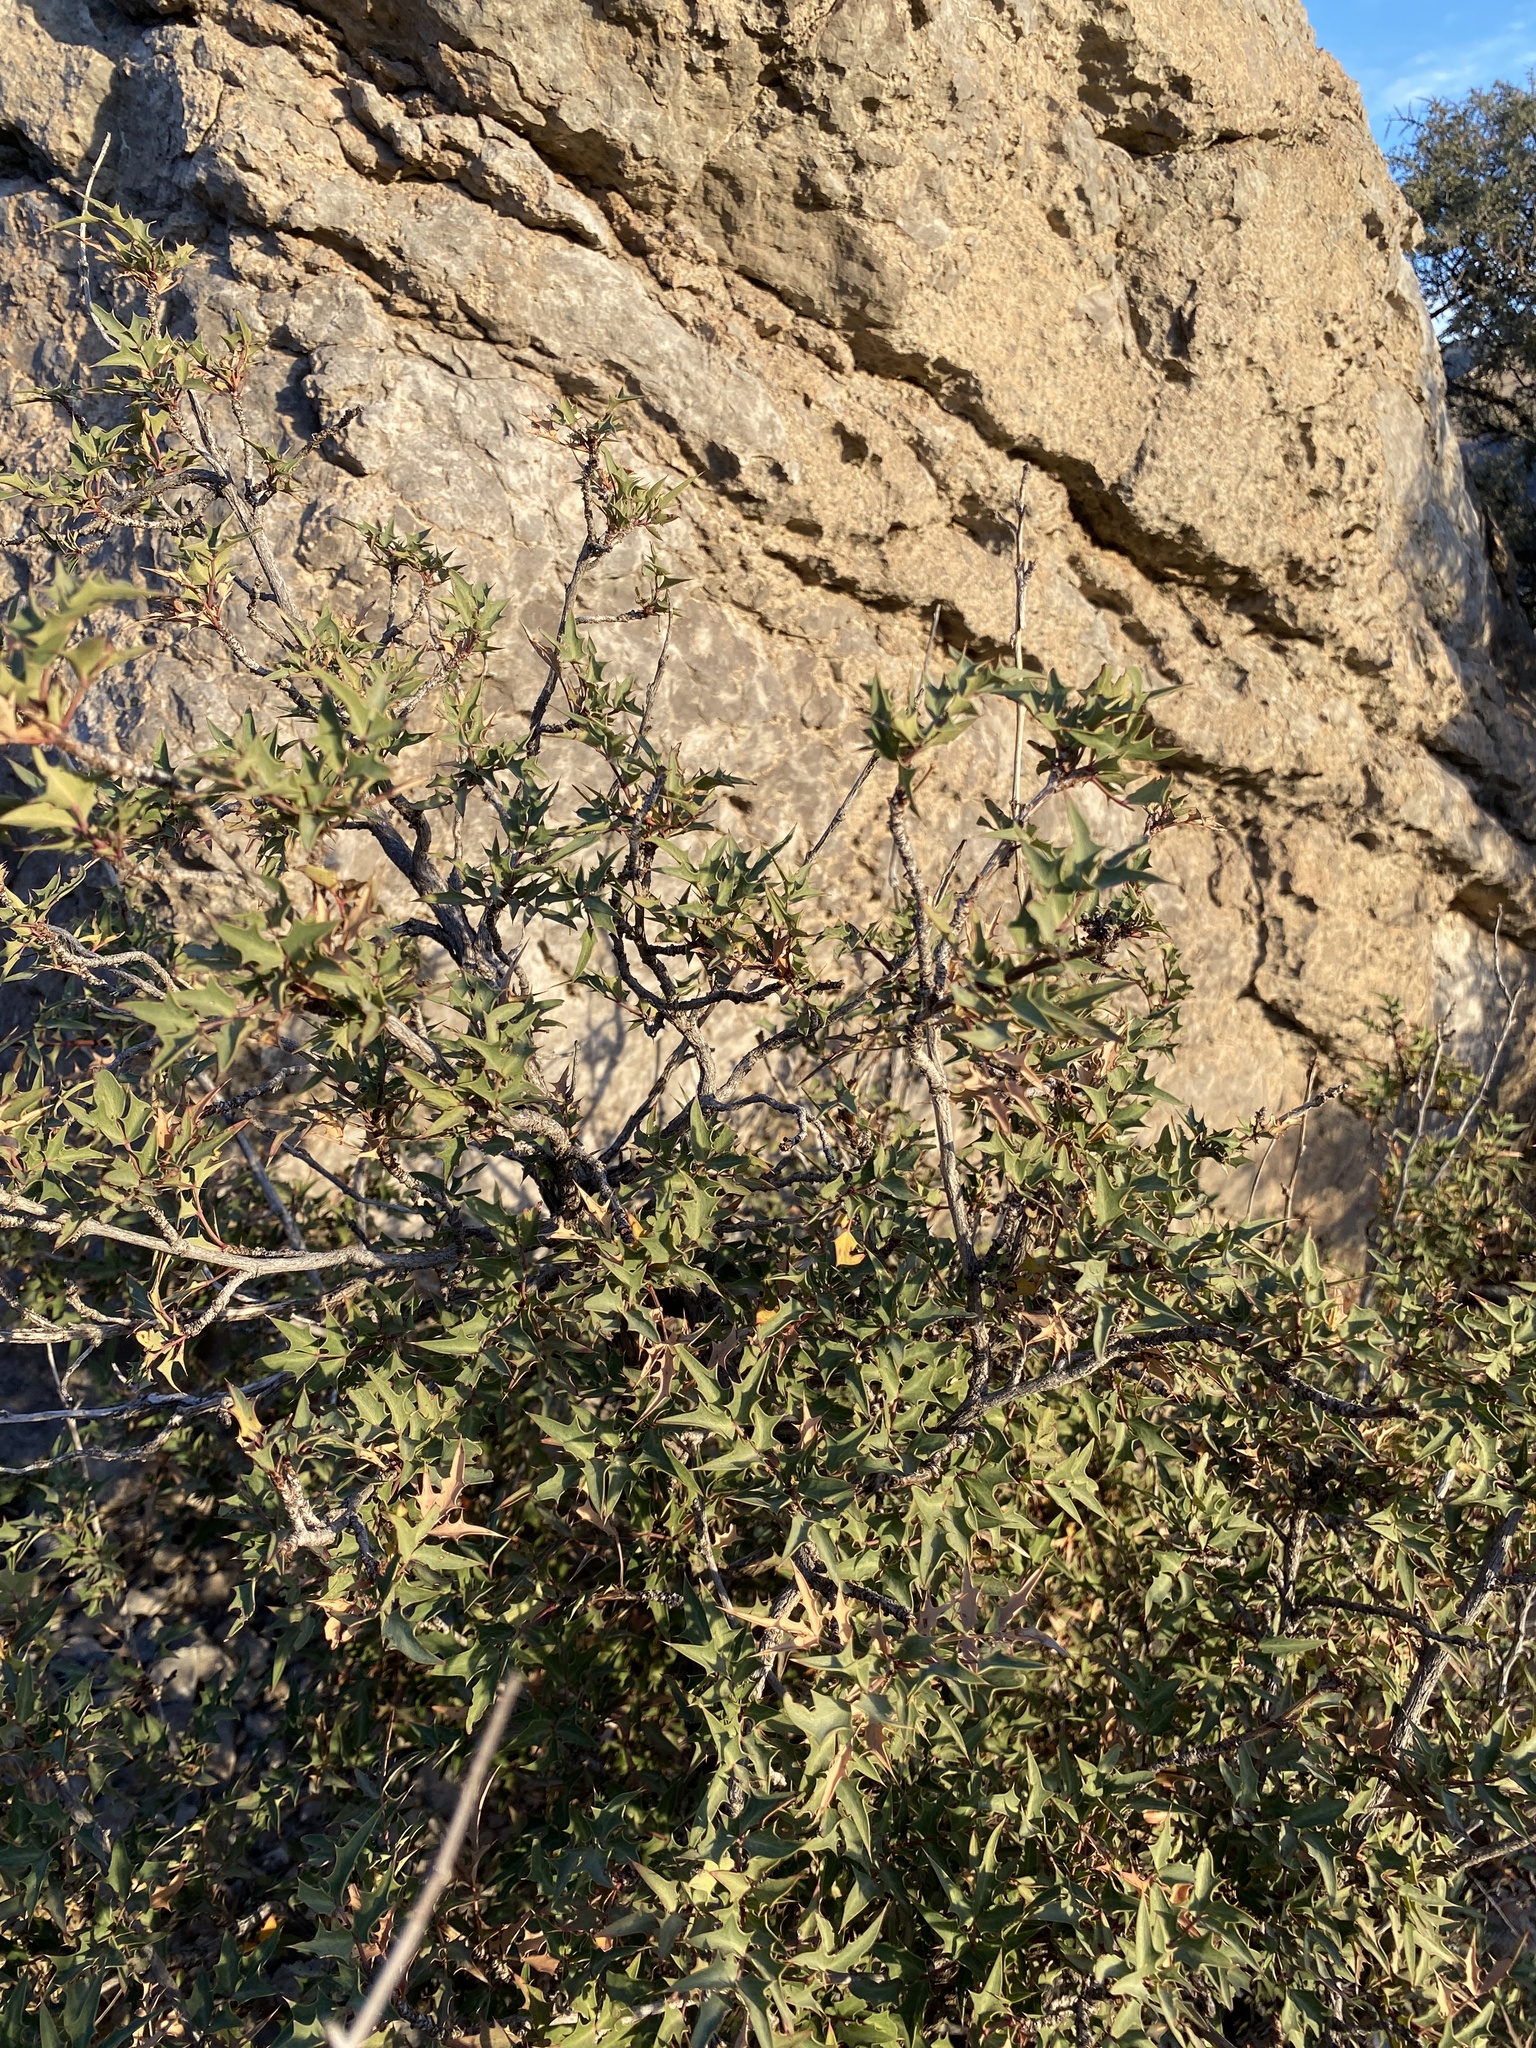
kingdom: Plantae
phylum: Tracheophyta
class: Magnoliopsida
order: Ranunculales
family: Berberidaceae
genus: Alloberberis
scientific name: Alloberberis haematocarpa
